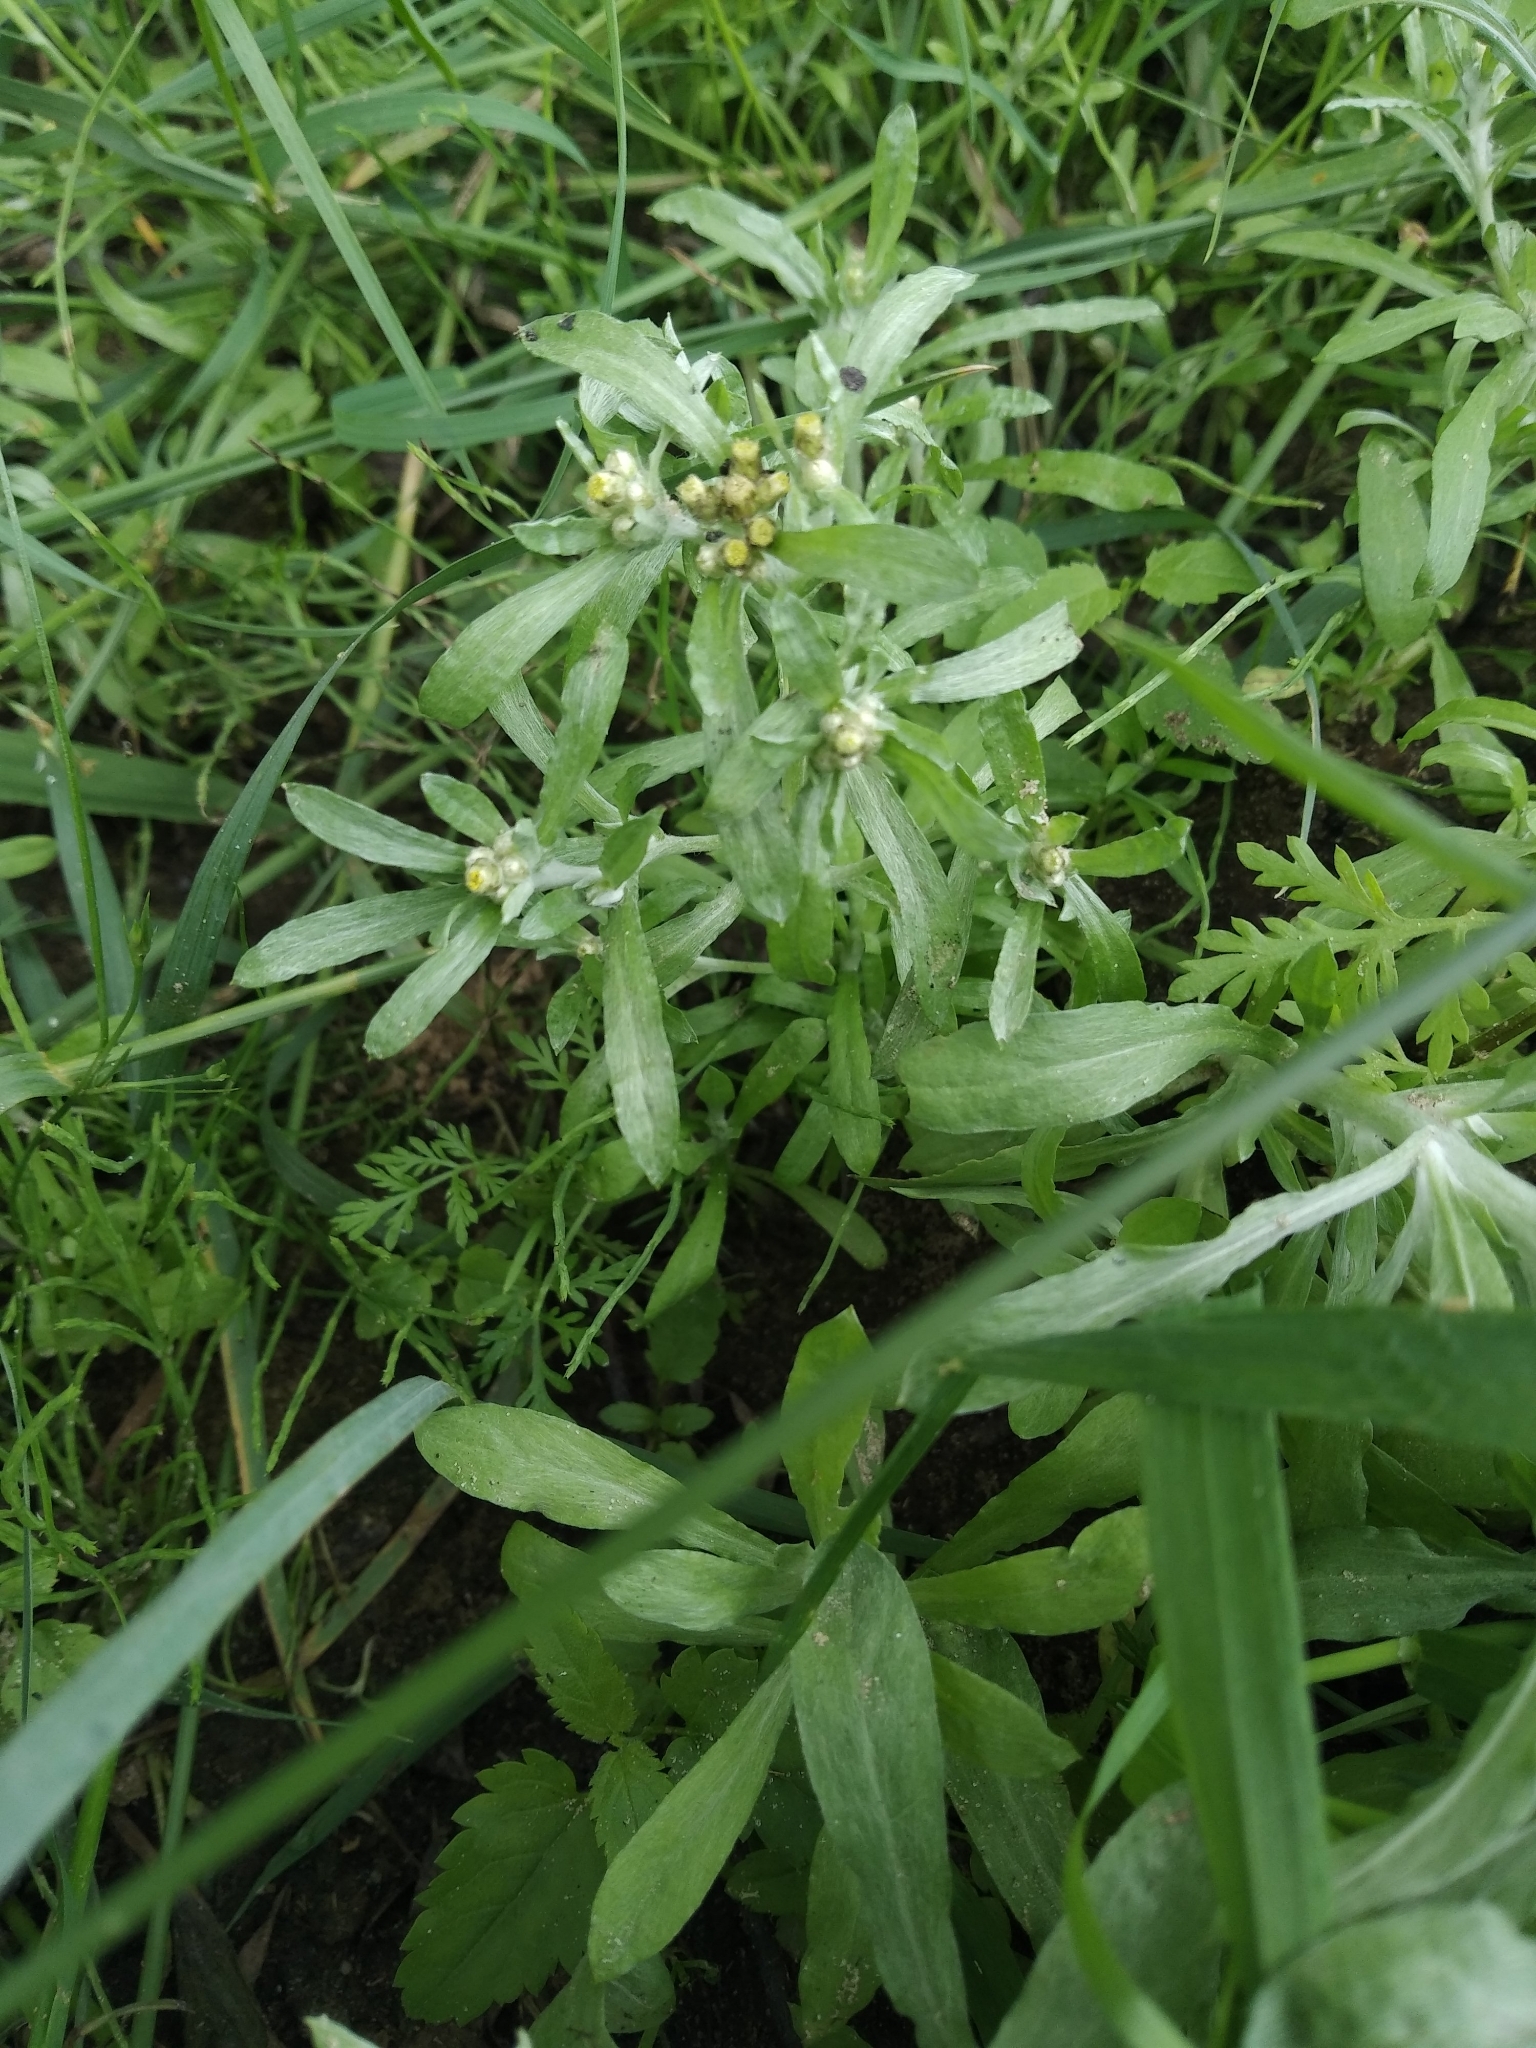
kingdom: Plantae
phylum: Tracheophyta
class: Magnoliopsida
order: Asterales
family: Asteraceae
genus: Gnaphalium
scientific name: Gnaphalium uliginosum
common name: Marsh cudweed
